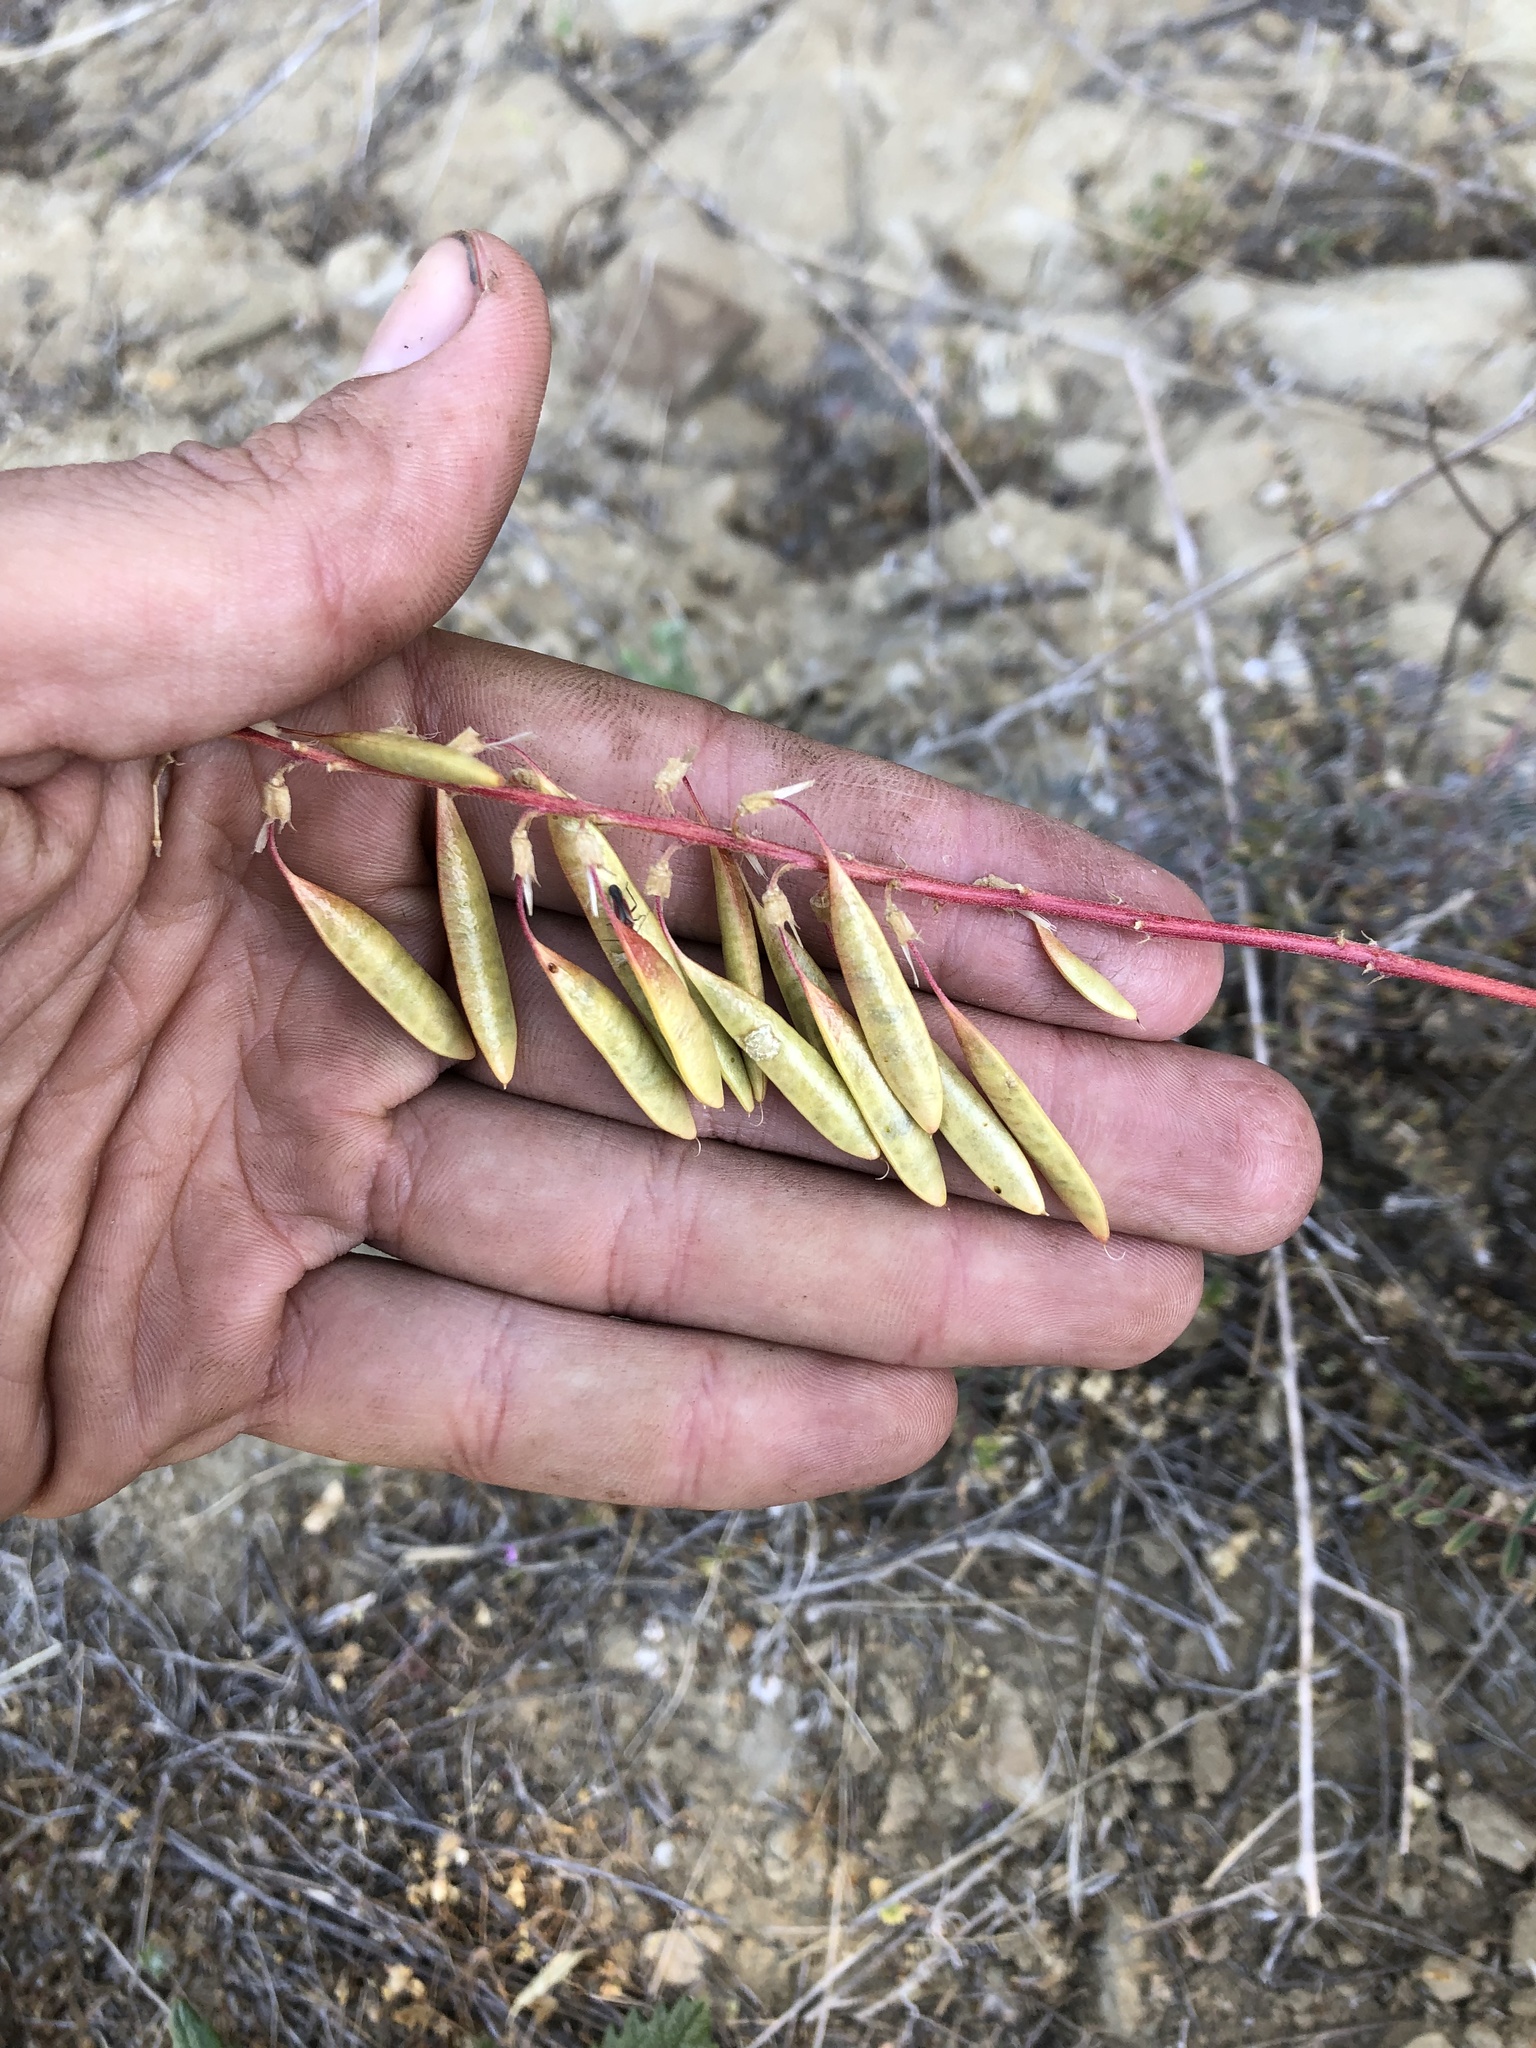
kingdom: Plantae
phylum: Tracheophyta
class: Magnoliopsida
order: Fabales
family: Fabaceae
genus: Astragalus
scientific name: Astragalus trichopodus
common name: Santa barbara milk-vetch
